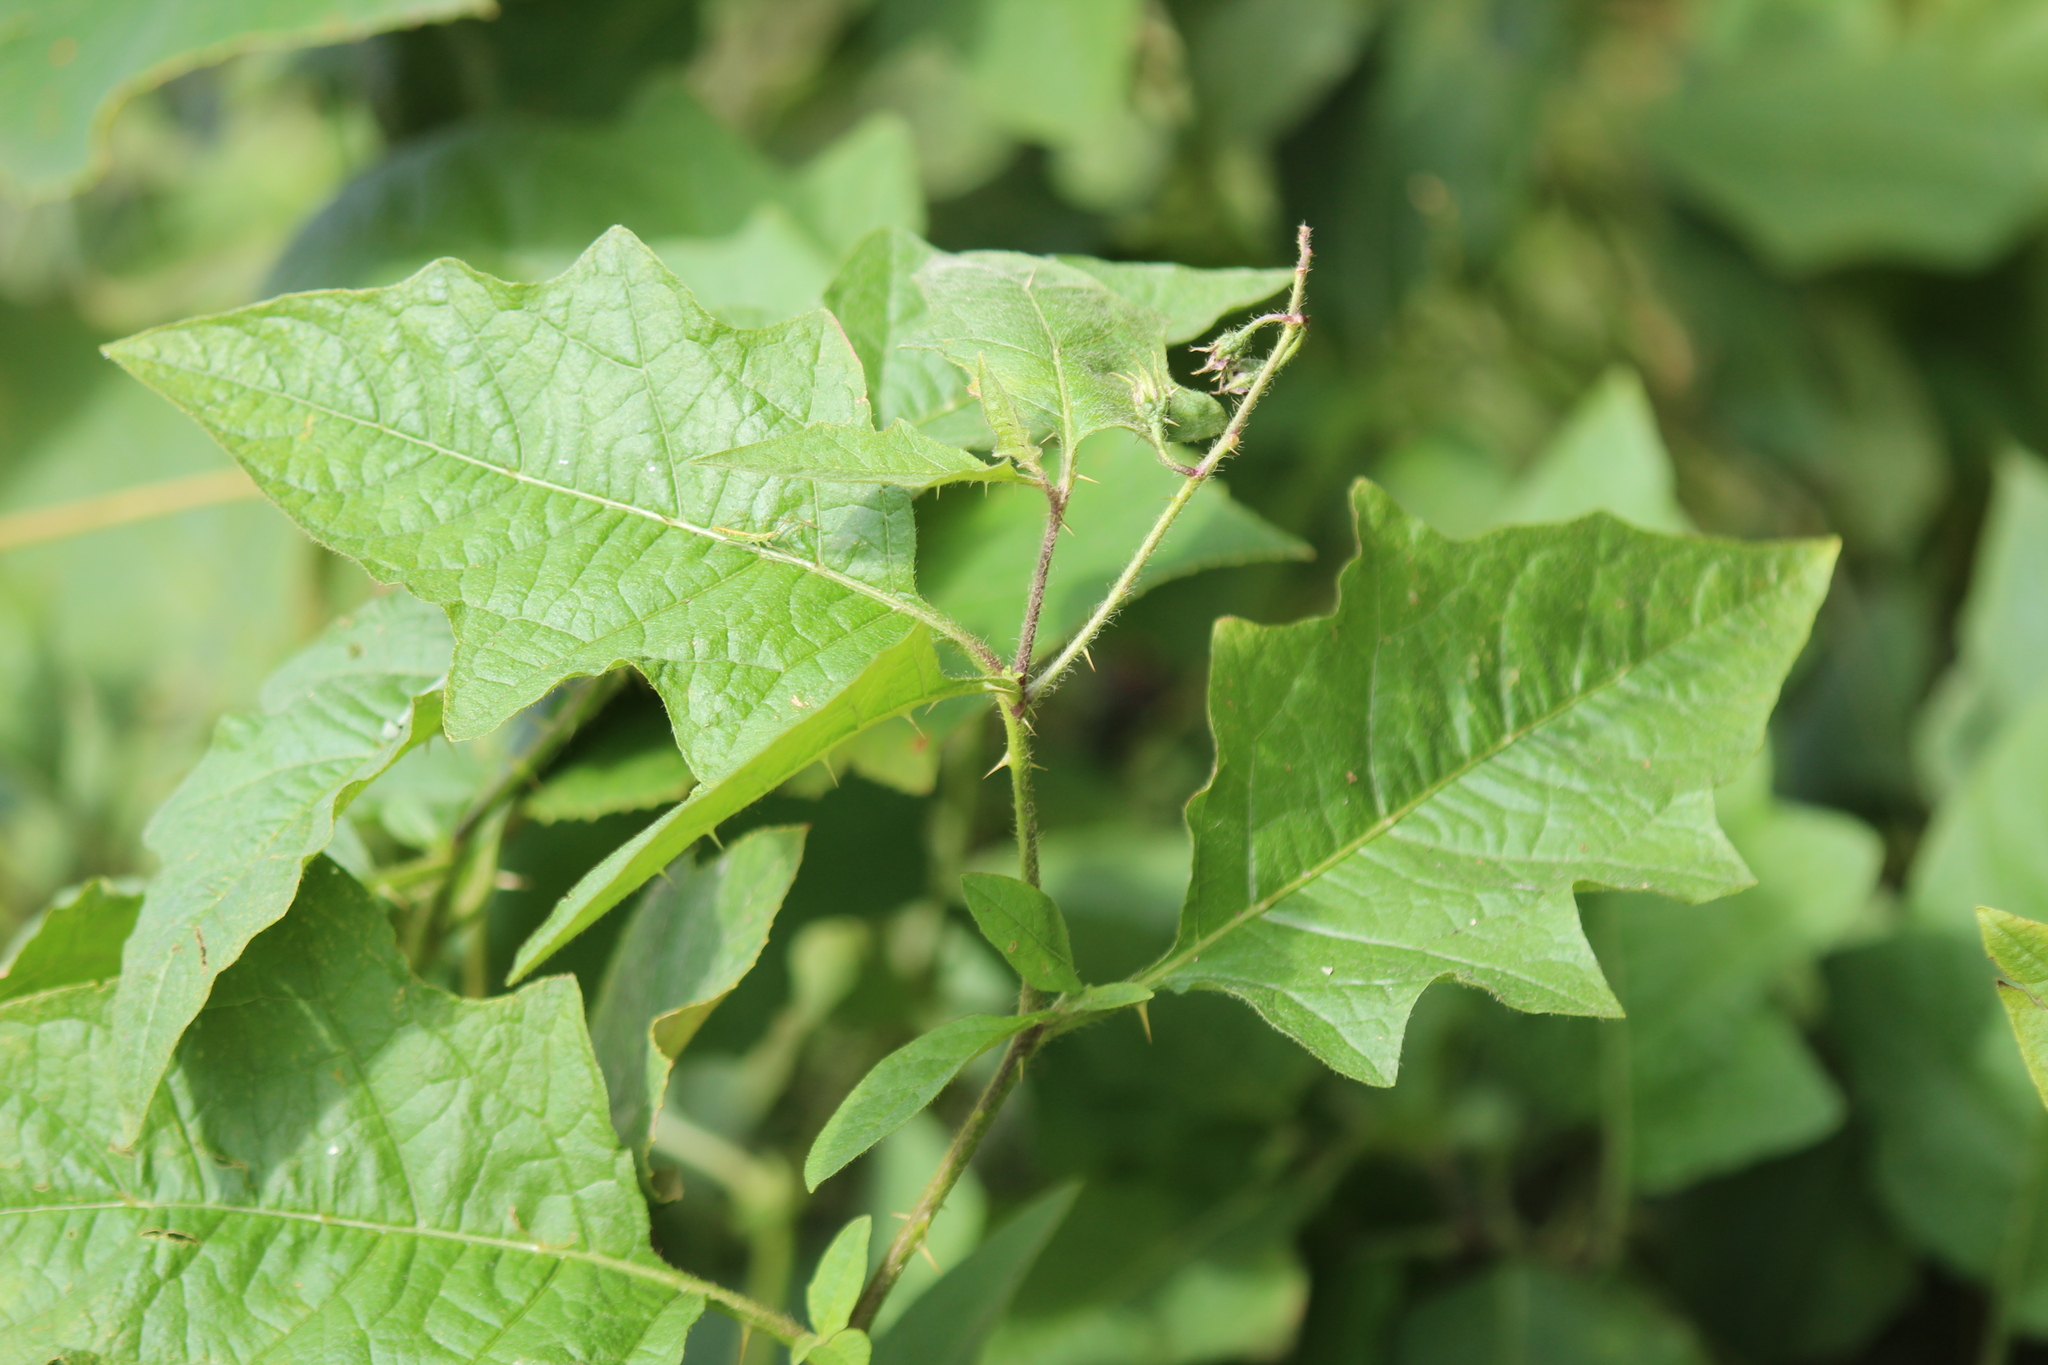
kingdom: Plantae
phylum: Tracheophyta
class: Magnoliopsida
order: Solanales
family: Solanaceae
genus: Solanum
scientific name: Solanum carolinense
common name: Horse-nettle
